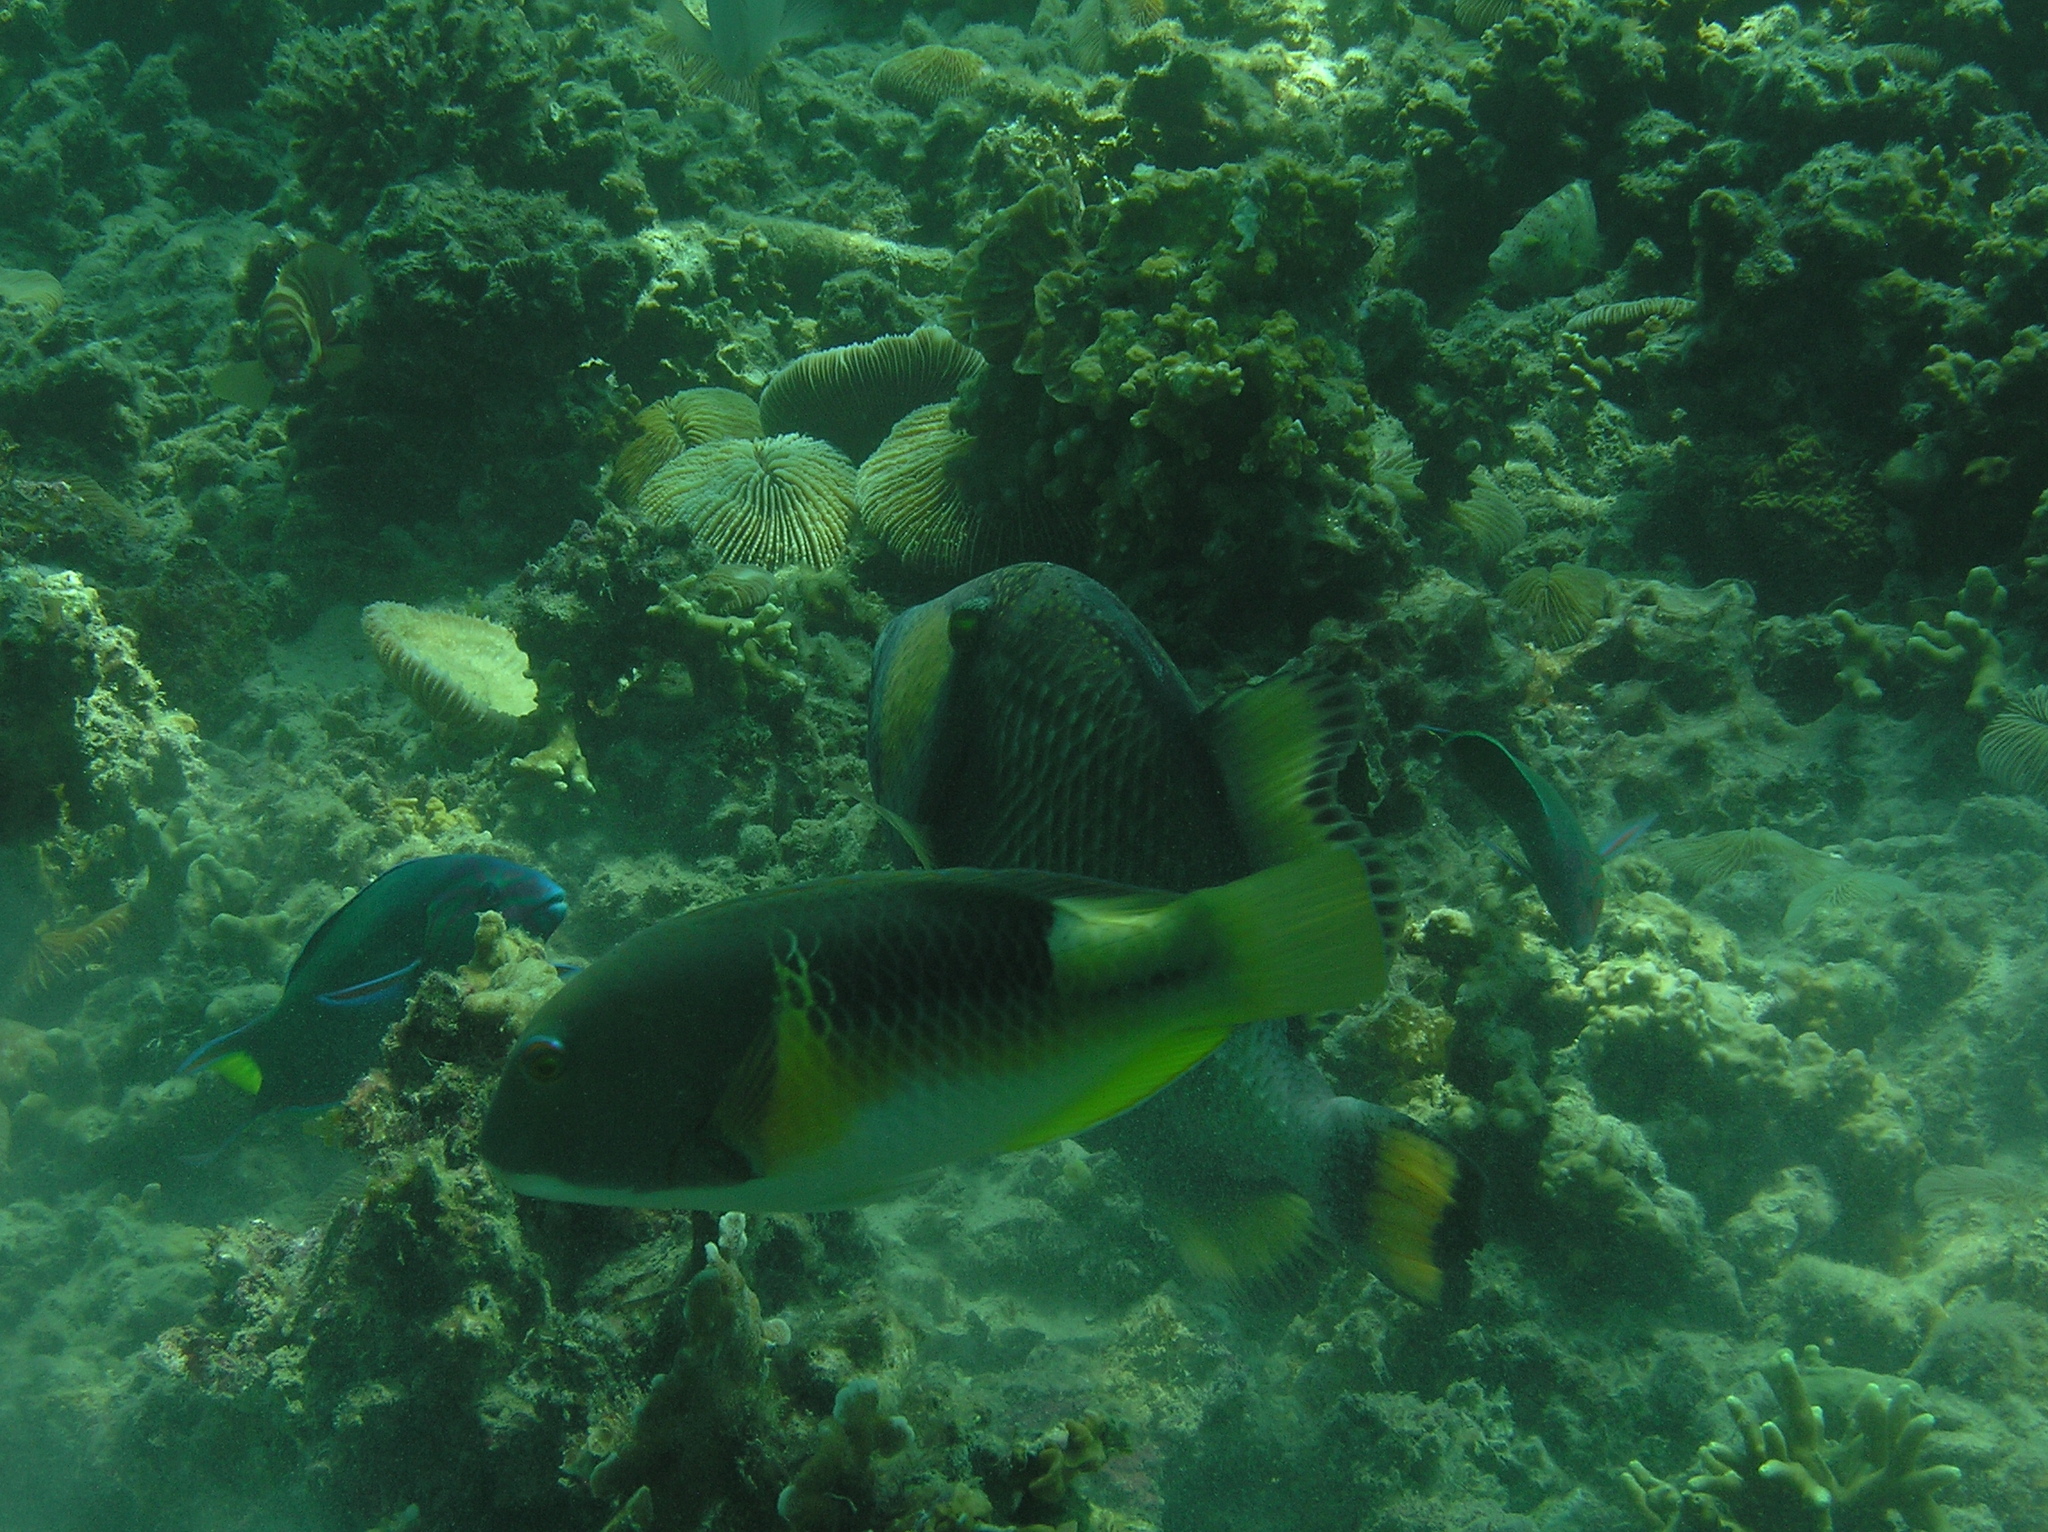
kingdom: Animalia
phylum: Chordata
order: Perciformes
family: Labridae
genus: Choerodon
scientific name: Choerodon anchorago
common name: Anchor tuskfish
